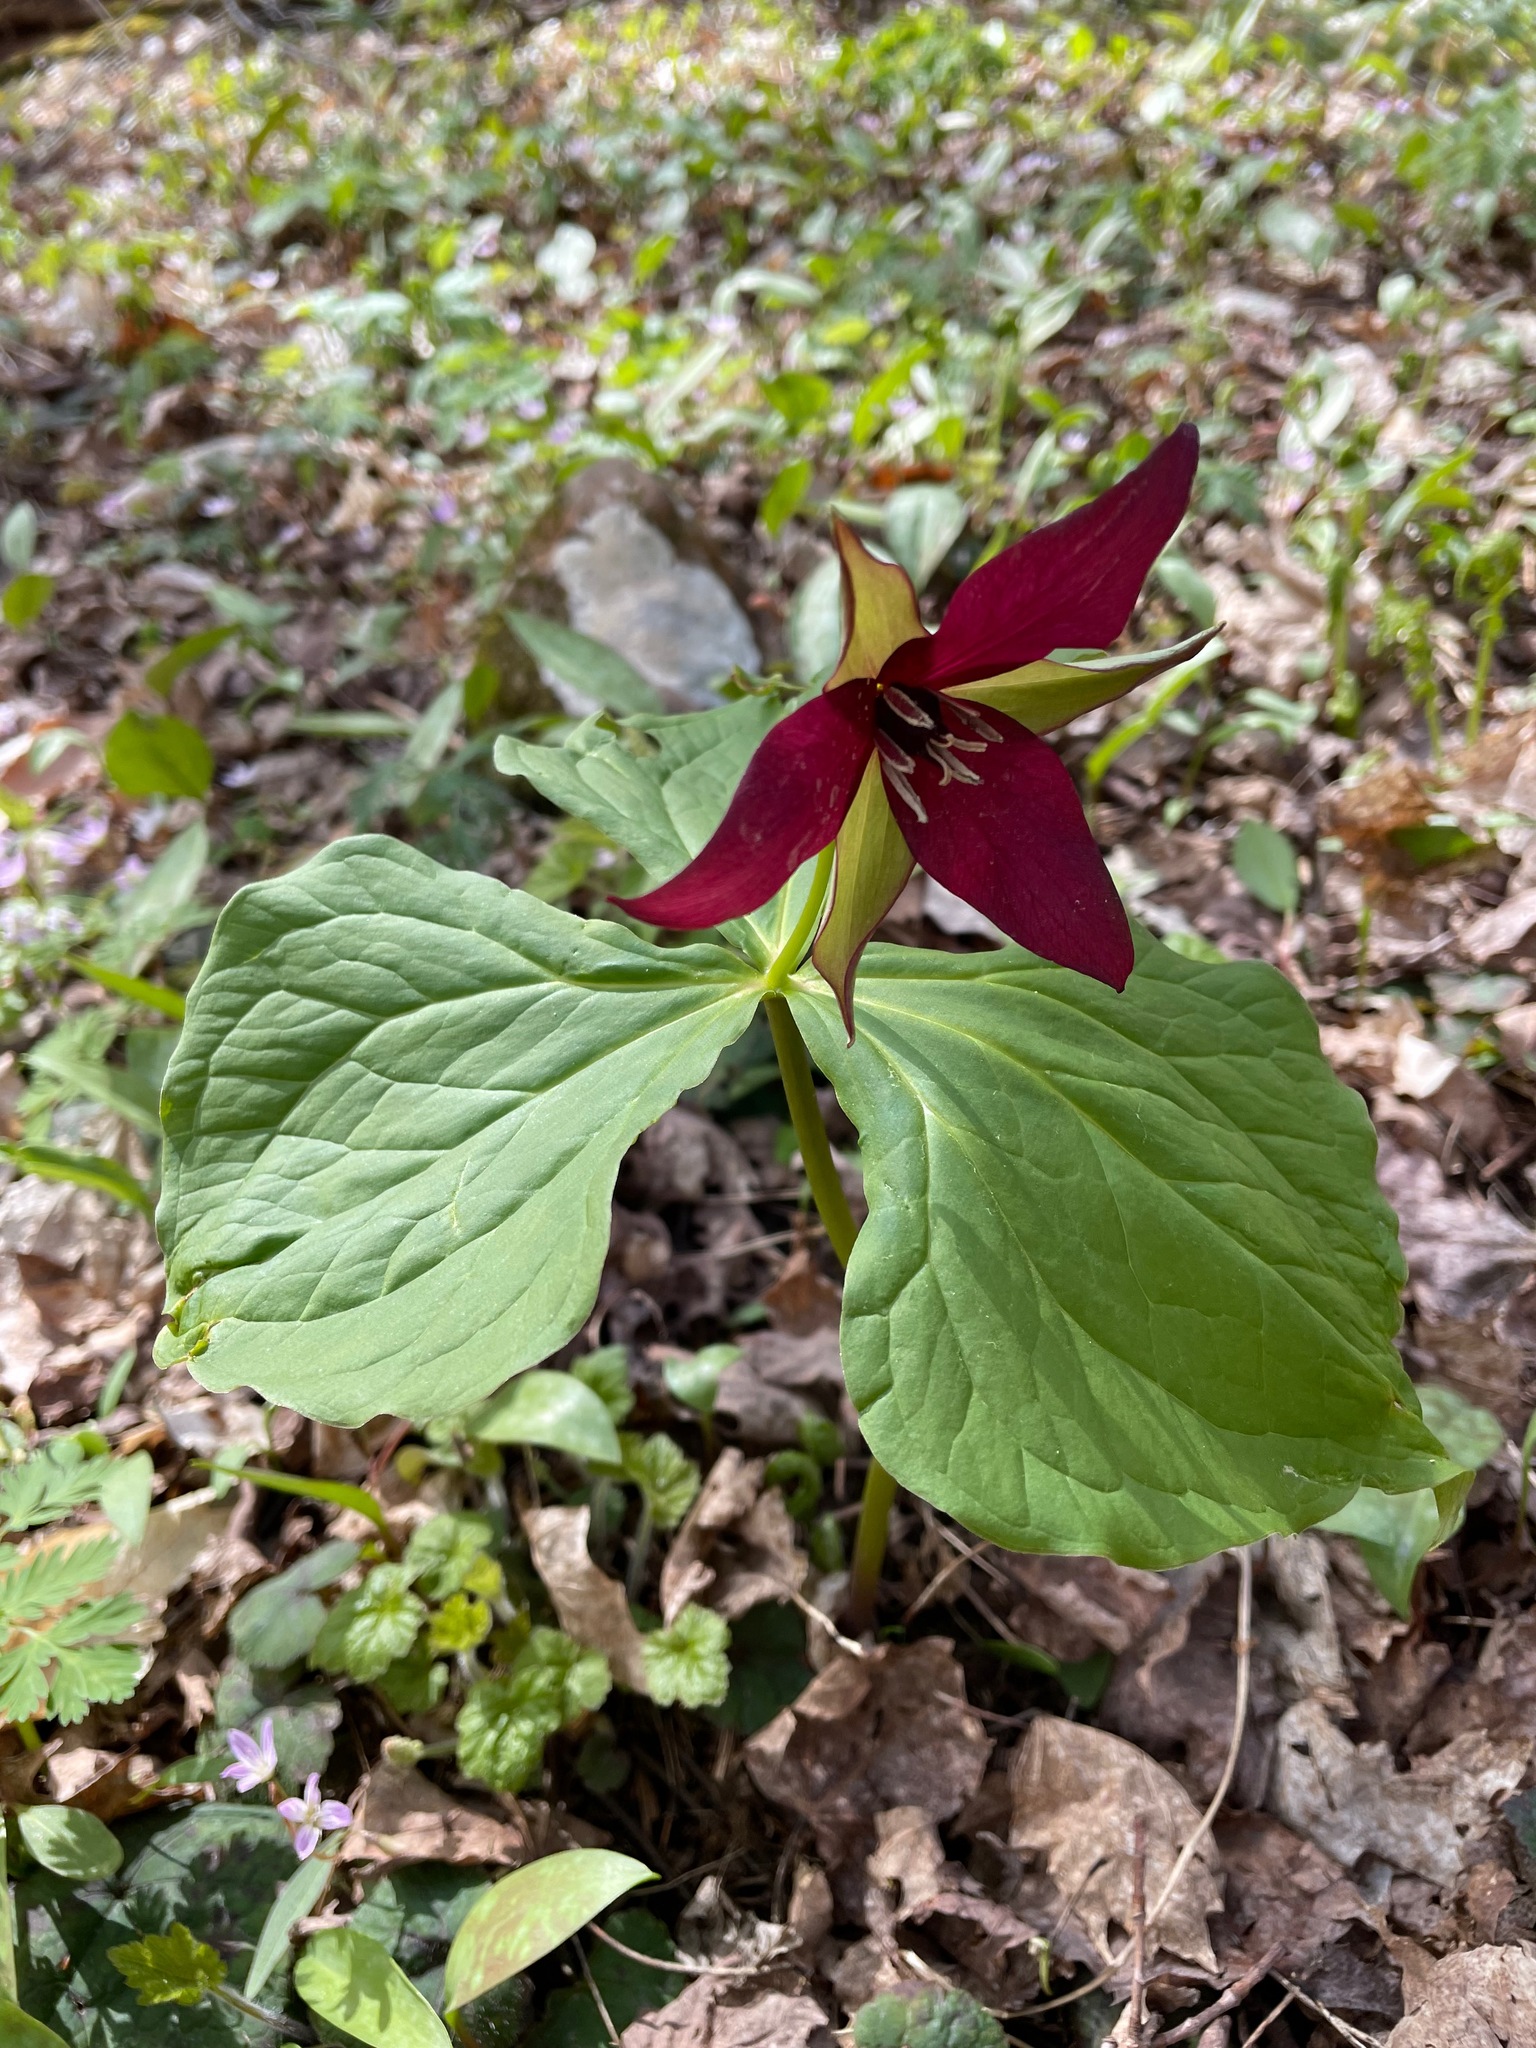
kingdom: Plantae
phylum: Tracheophyta
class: Liliopsida
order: Liliales
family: Melanthiaceae
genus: Trillium
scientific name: Trillium erectum
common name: Purple trillium
